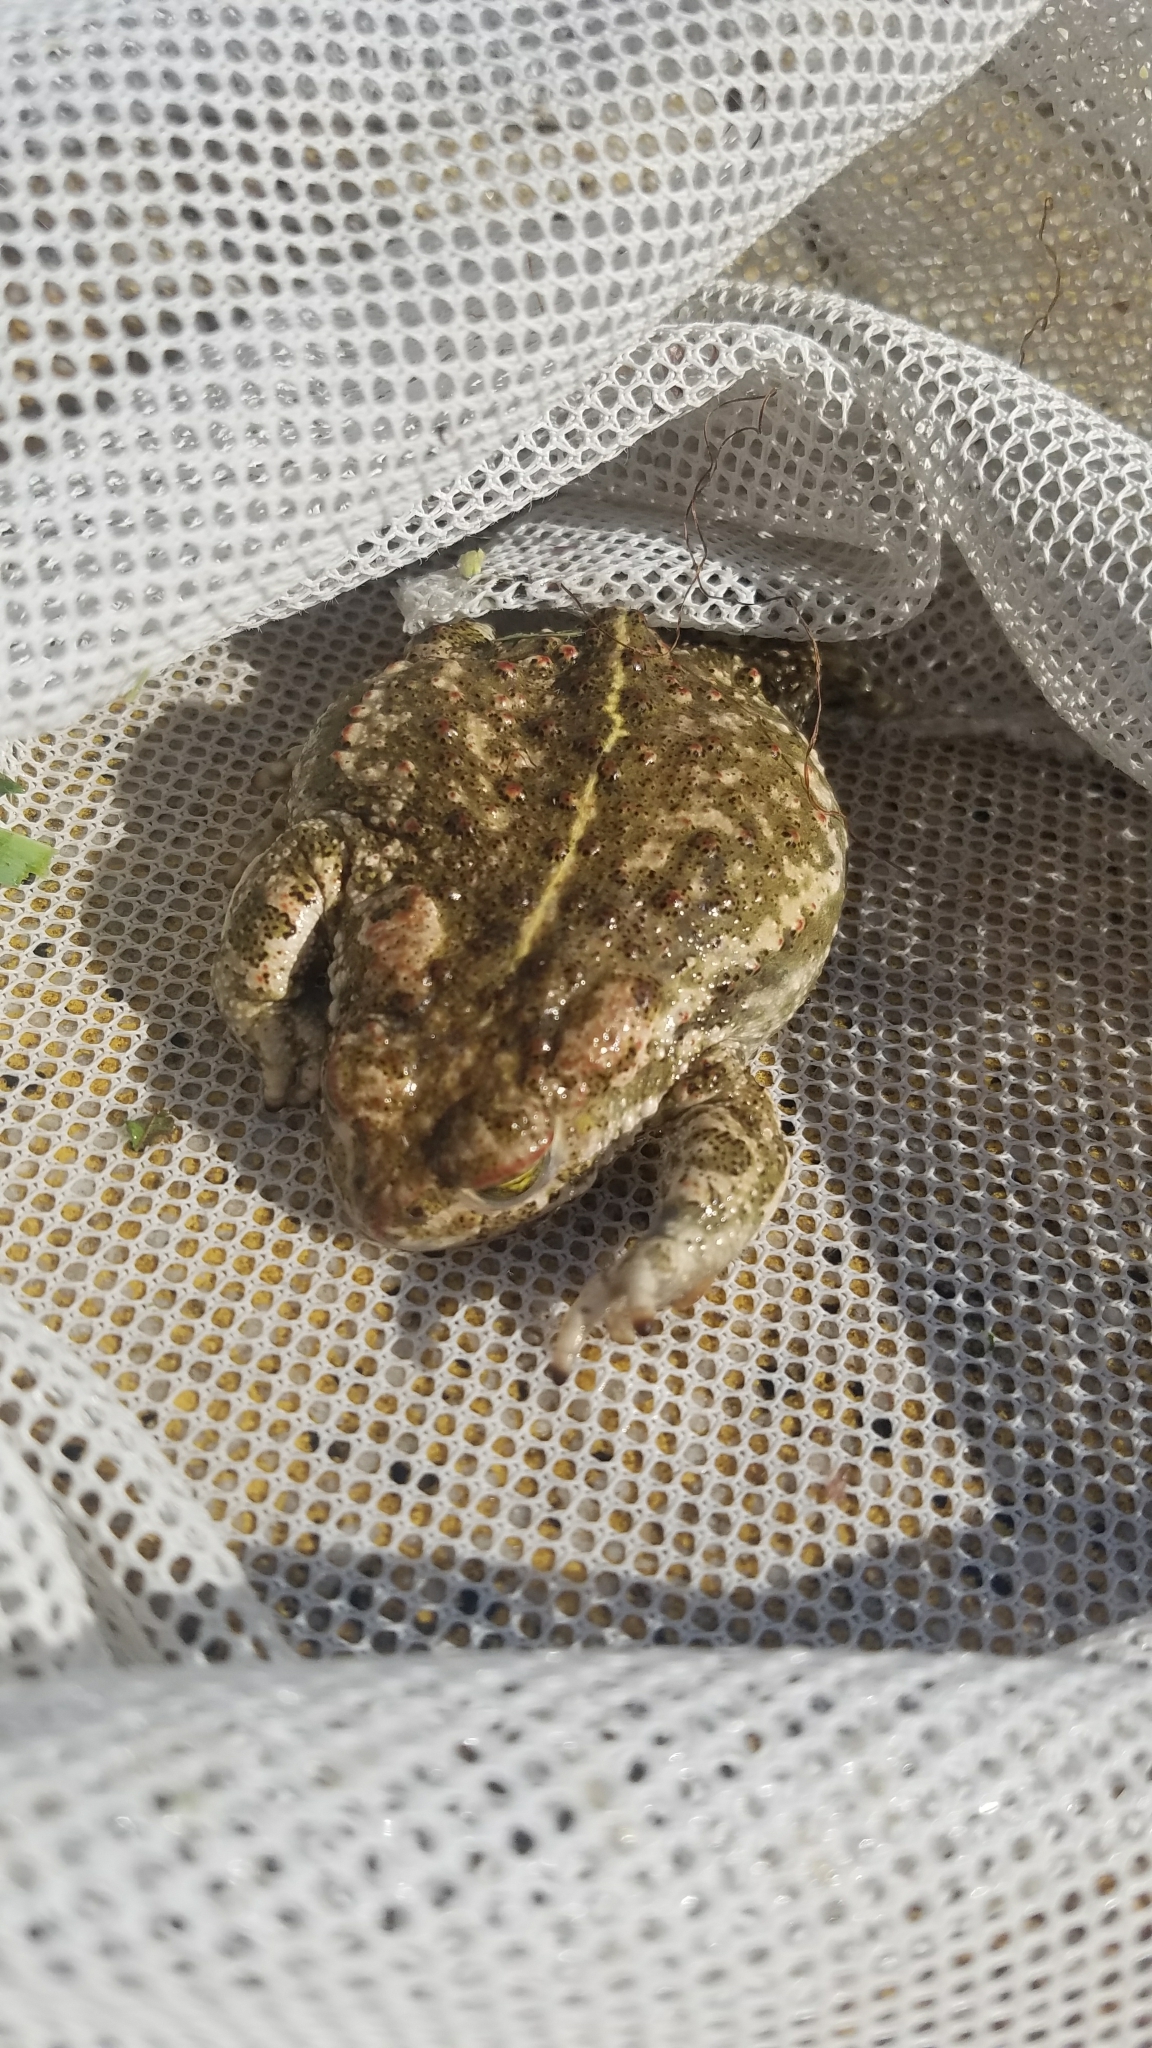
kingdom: Animalia
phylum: Chordata
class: Amphibia
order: Anura
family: Bufonidae
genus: Epidalea
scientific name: Epidalea calamita
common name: Natterjack toad
